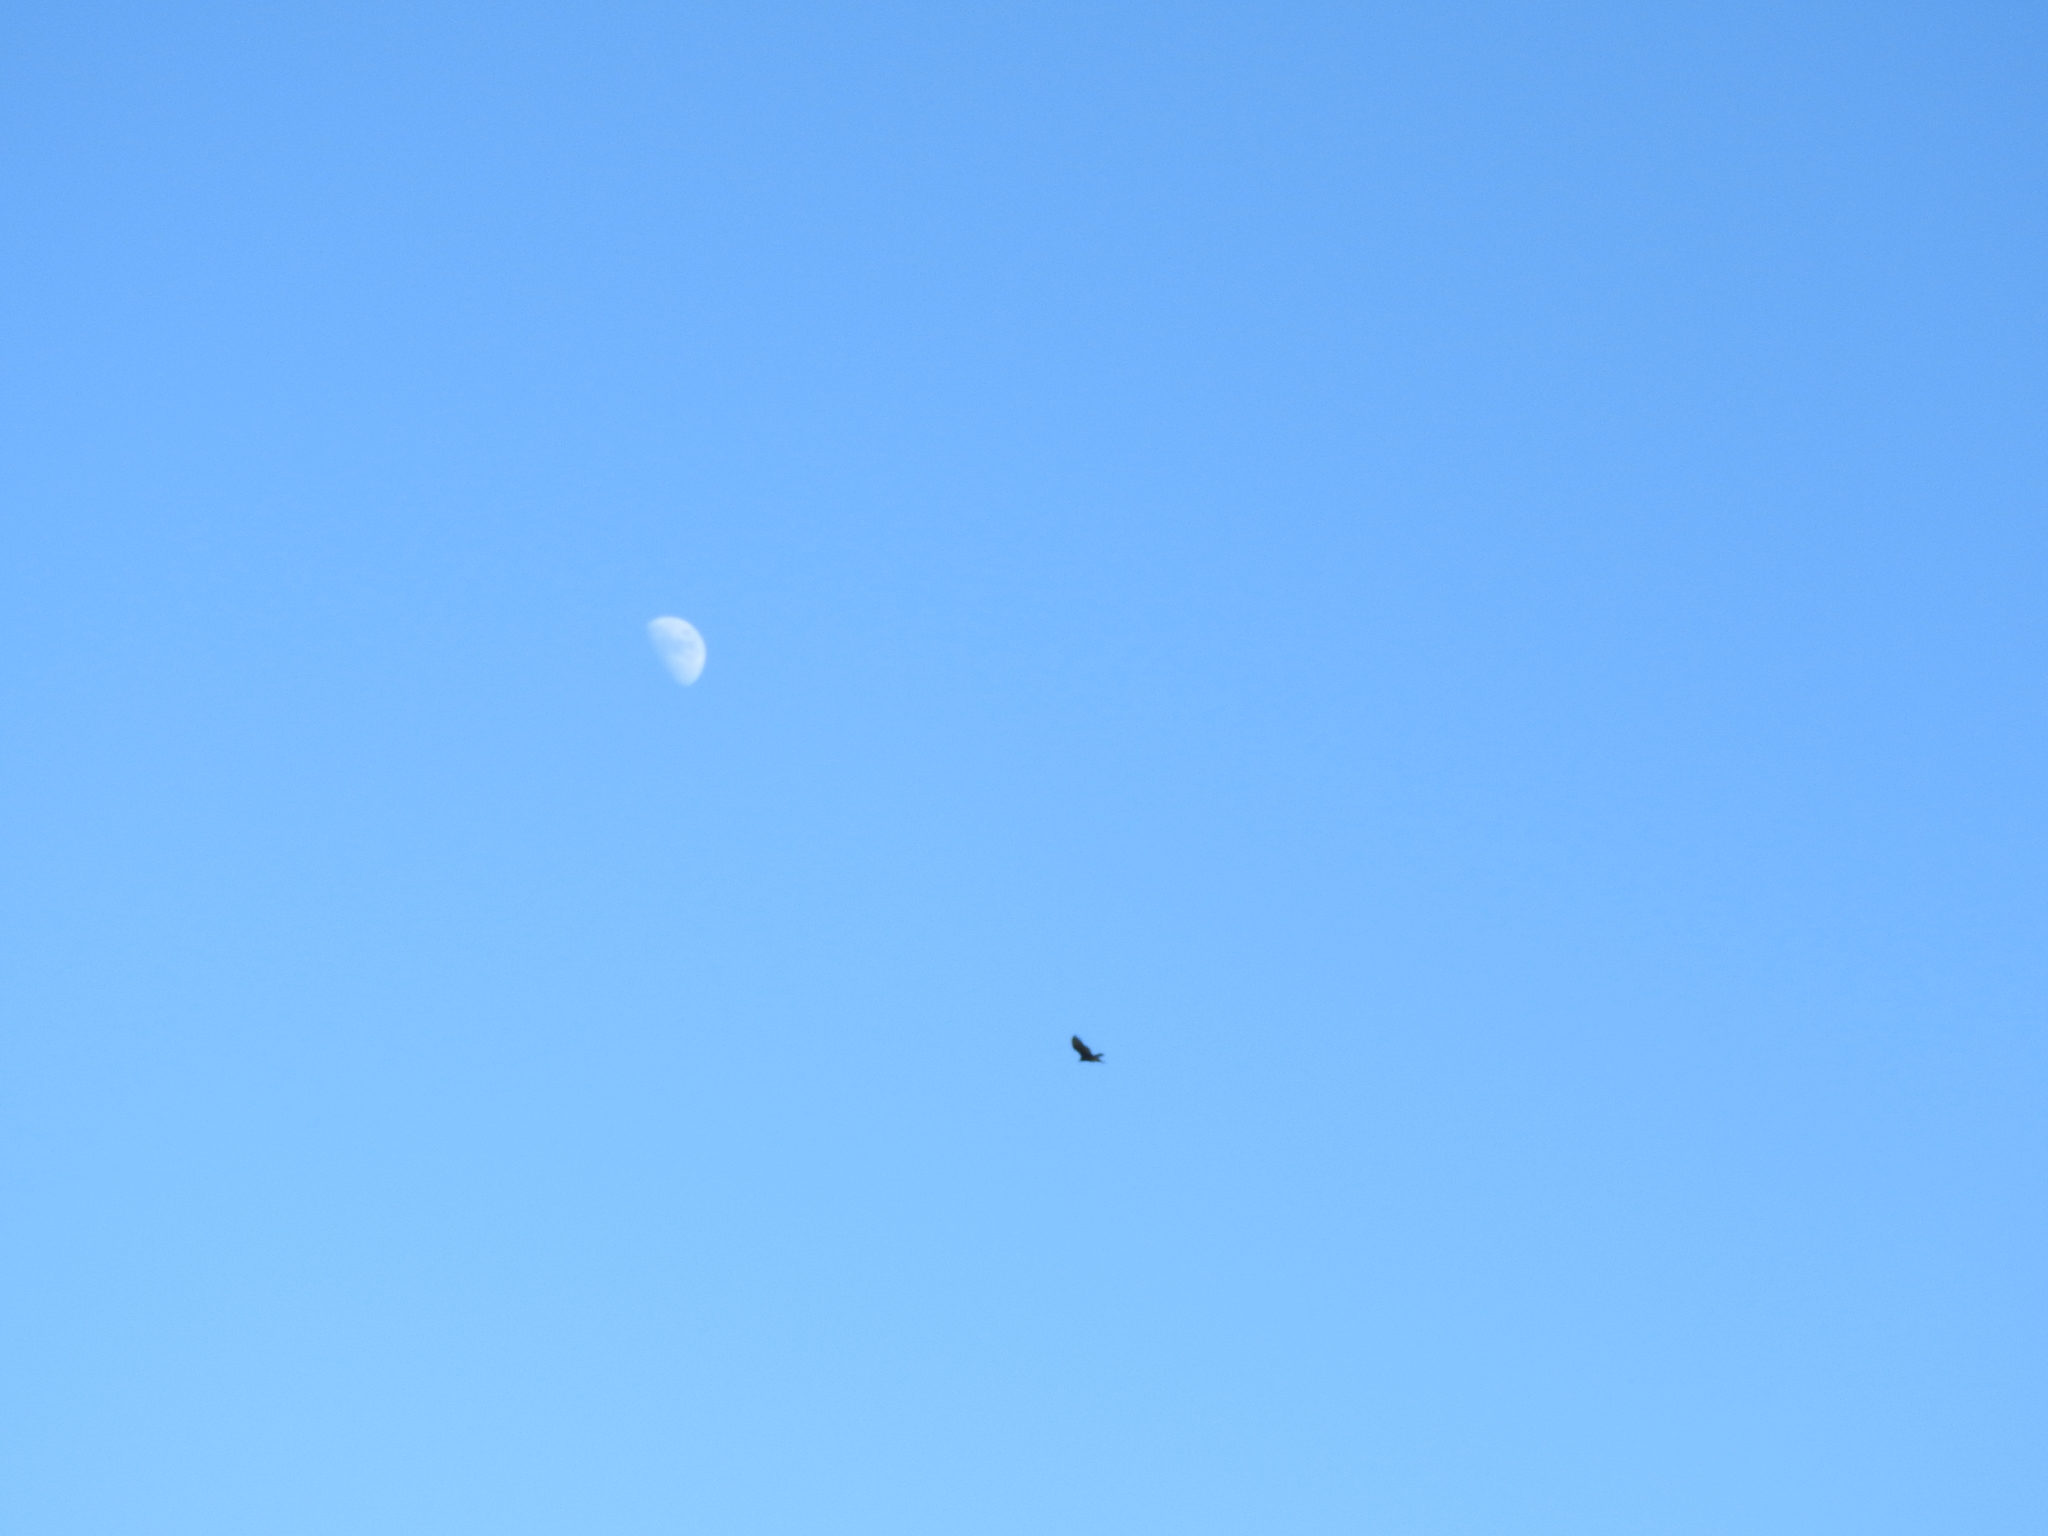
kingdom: Animalia
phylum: Chordata
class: Aves
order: Accipitriformes
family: Cathartidae
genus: Cathartes
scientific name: Cathartes aura
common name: Turkey vulture
